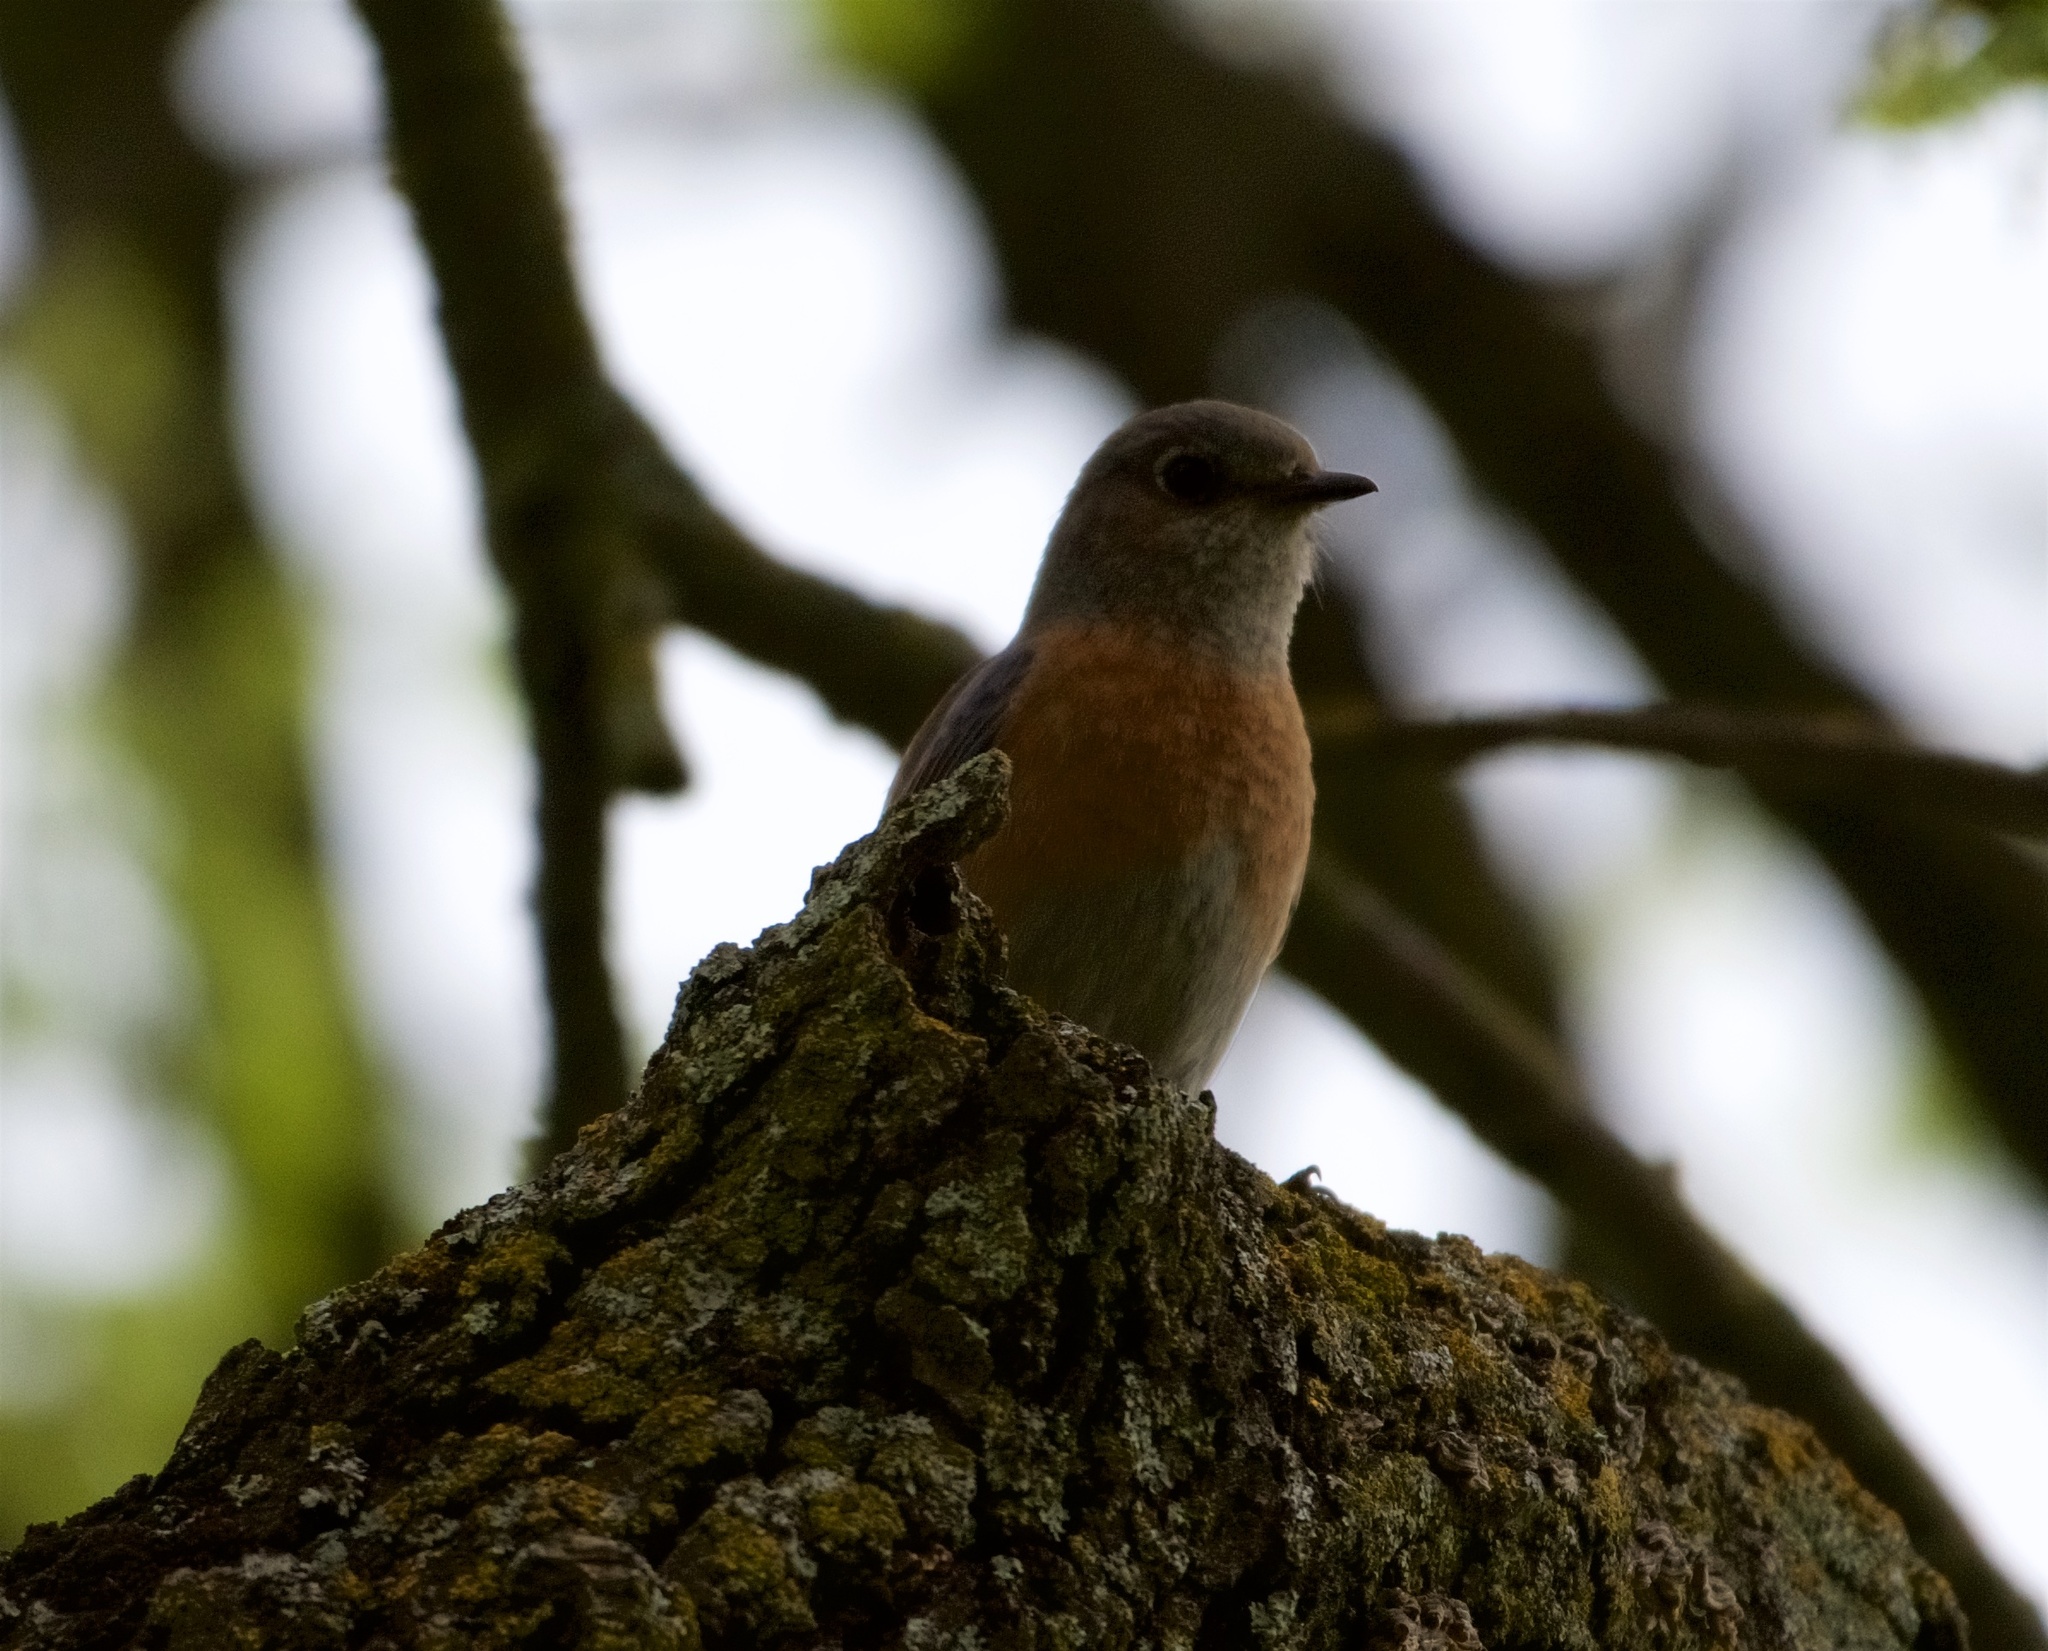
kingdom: Animalia
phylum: Chordata
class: Aves
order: Passeriformes
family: Turdidae
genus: Sialia
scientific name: Sialia mexicana
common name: Western bluebird
